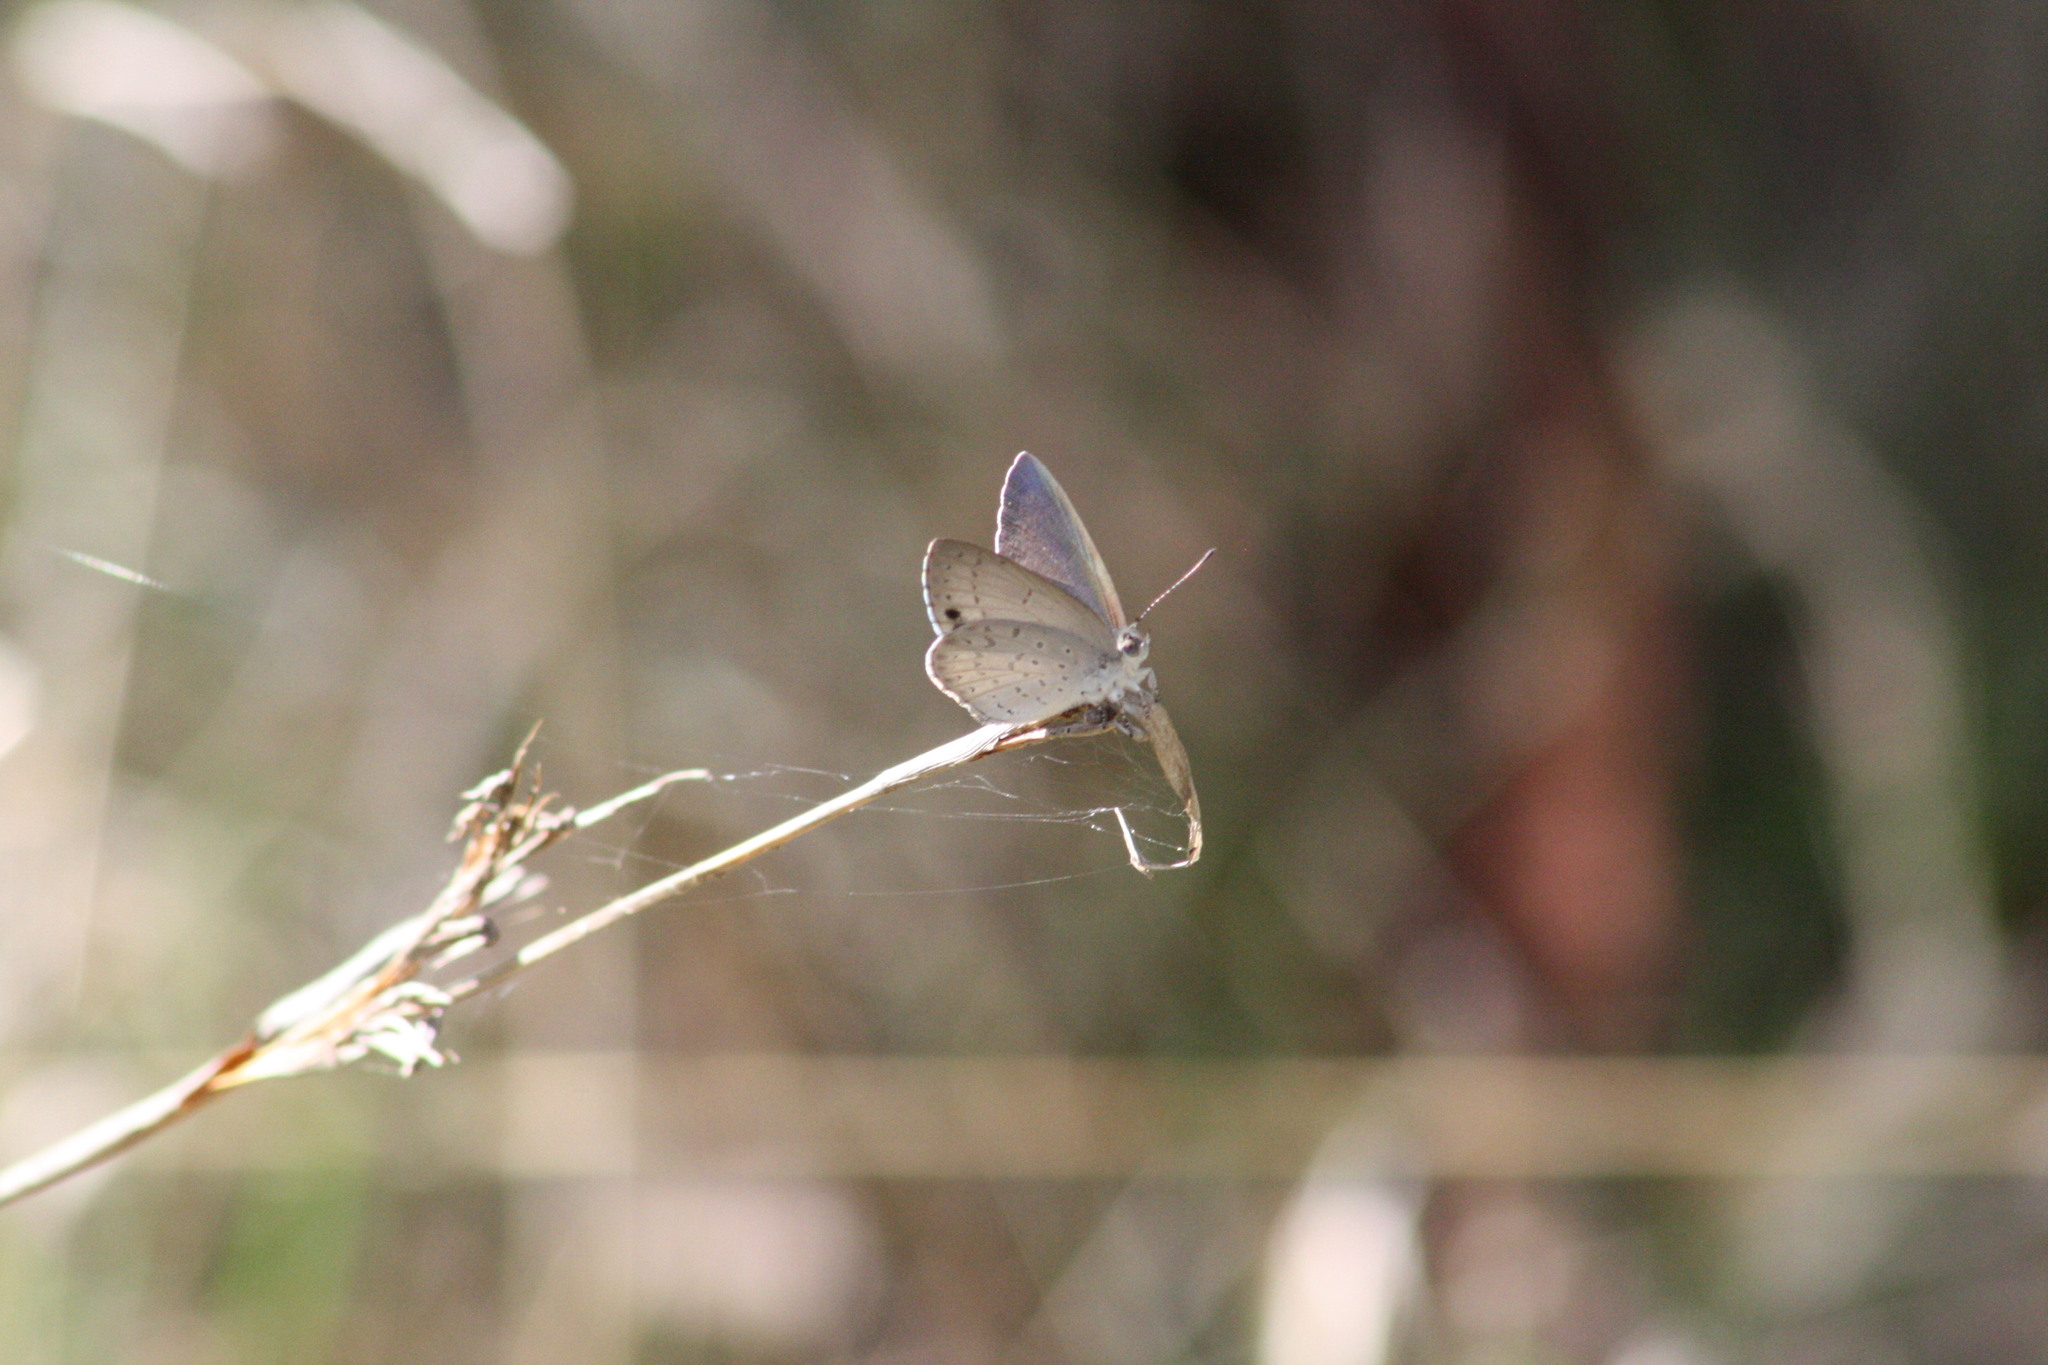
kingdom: Animalia
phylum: Arthropoda
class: Insecta
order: Lepidoptera
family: Lycaenidae
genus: Candalides
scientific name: Candalides
